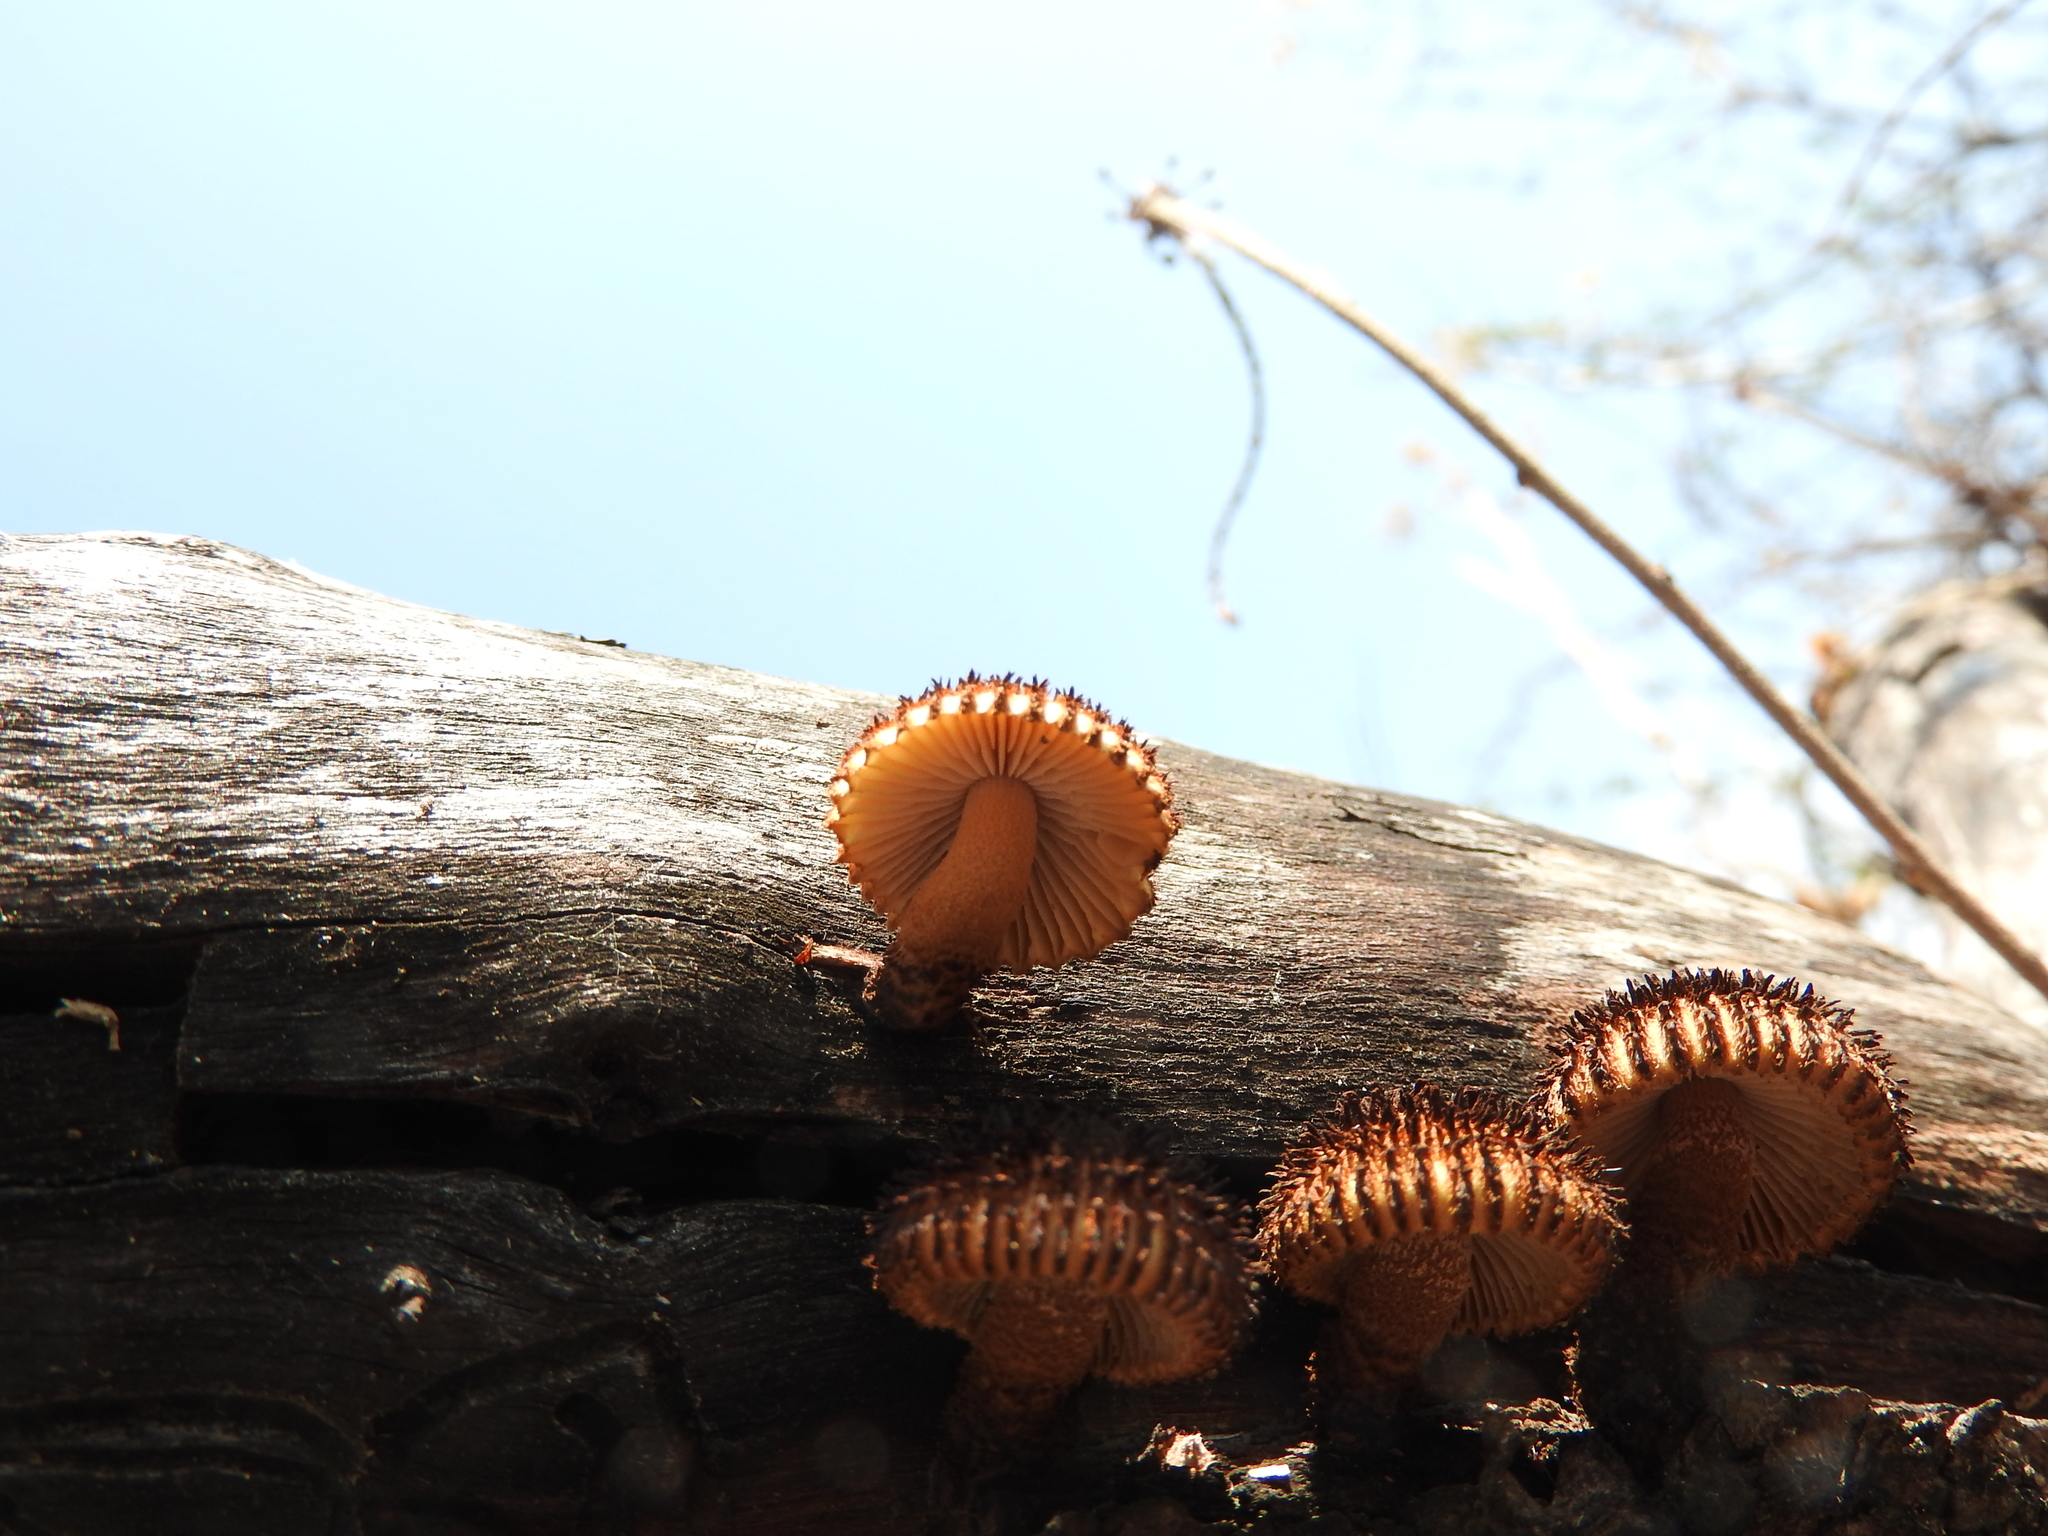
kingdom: Fungi
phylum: Basidiomycota
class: Agaricomycetes
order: Gloeophyllales
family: Gloeophyllaceae
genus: Heliocybe
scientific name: Heliocybe sulcata
